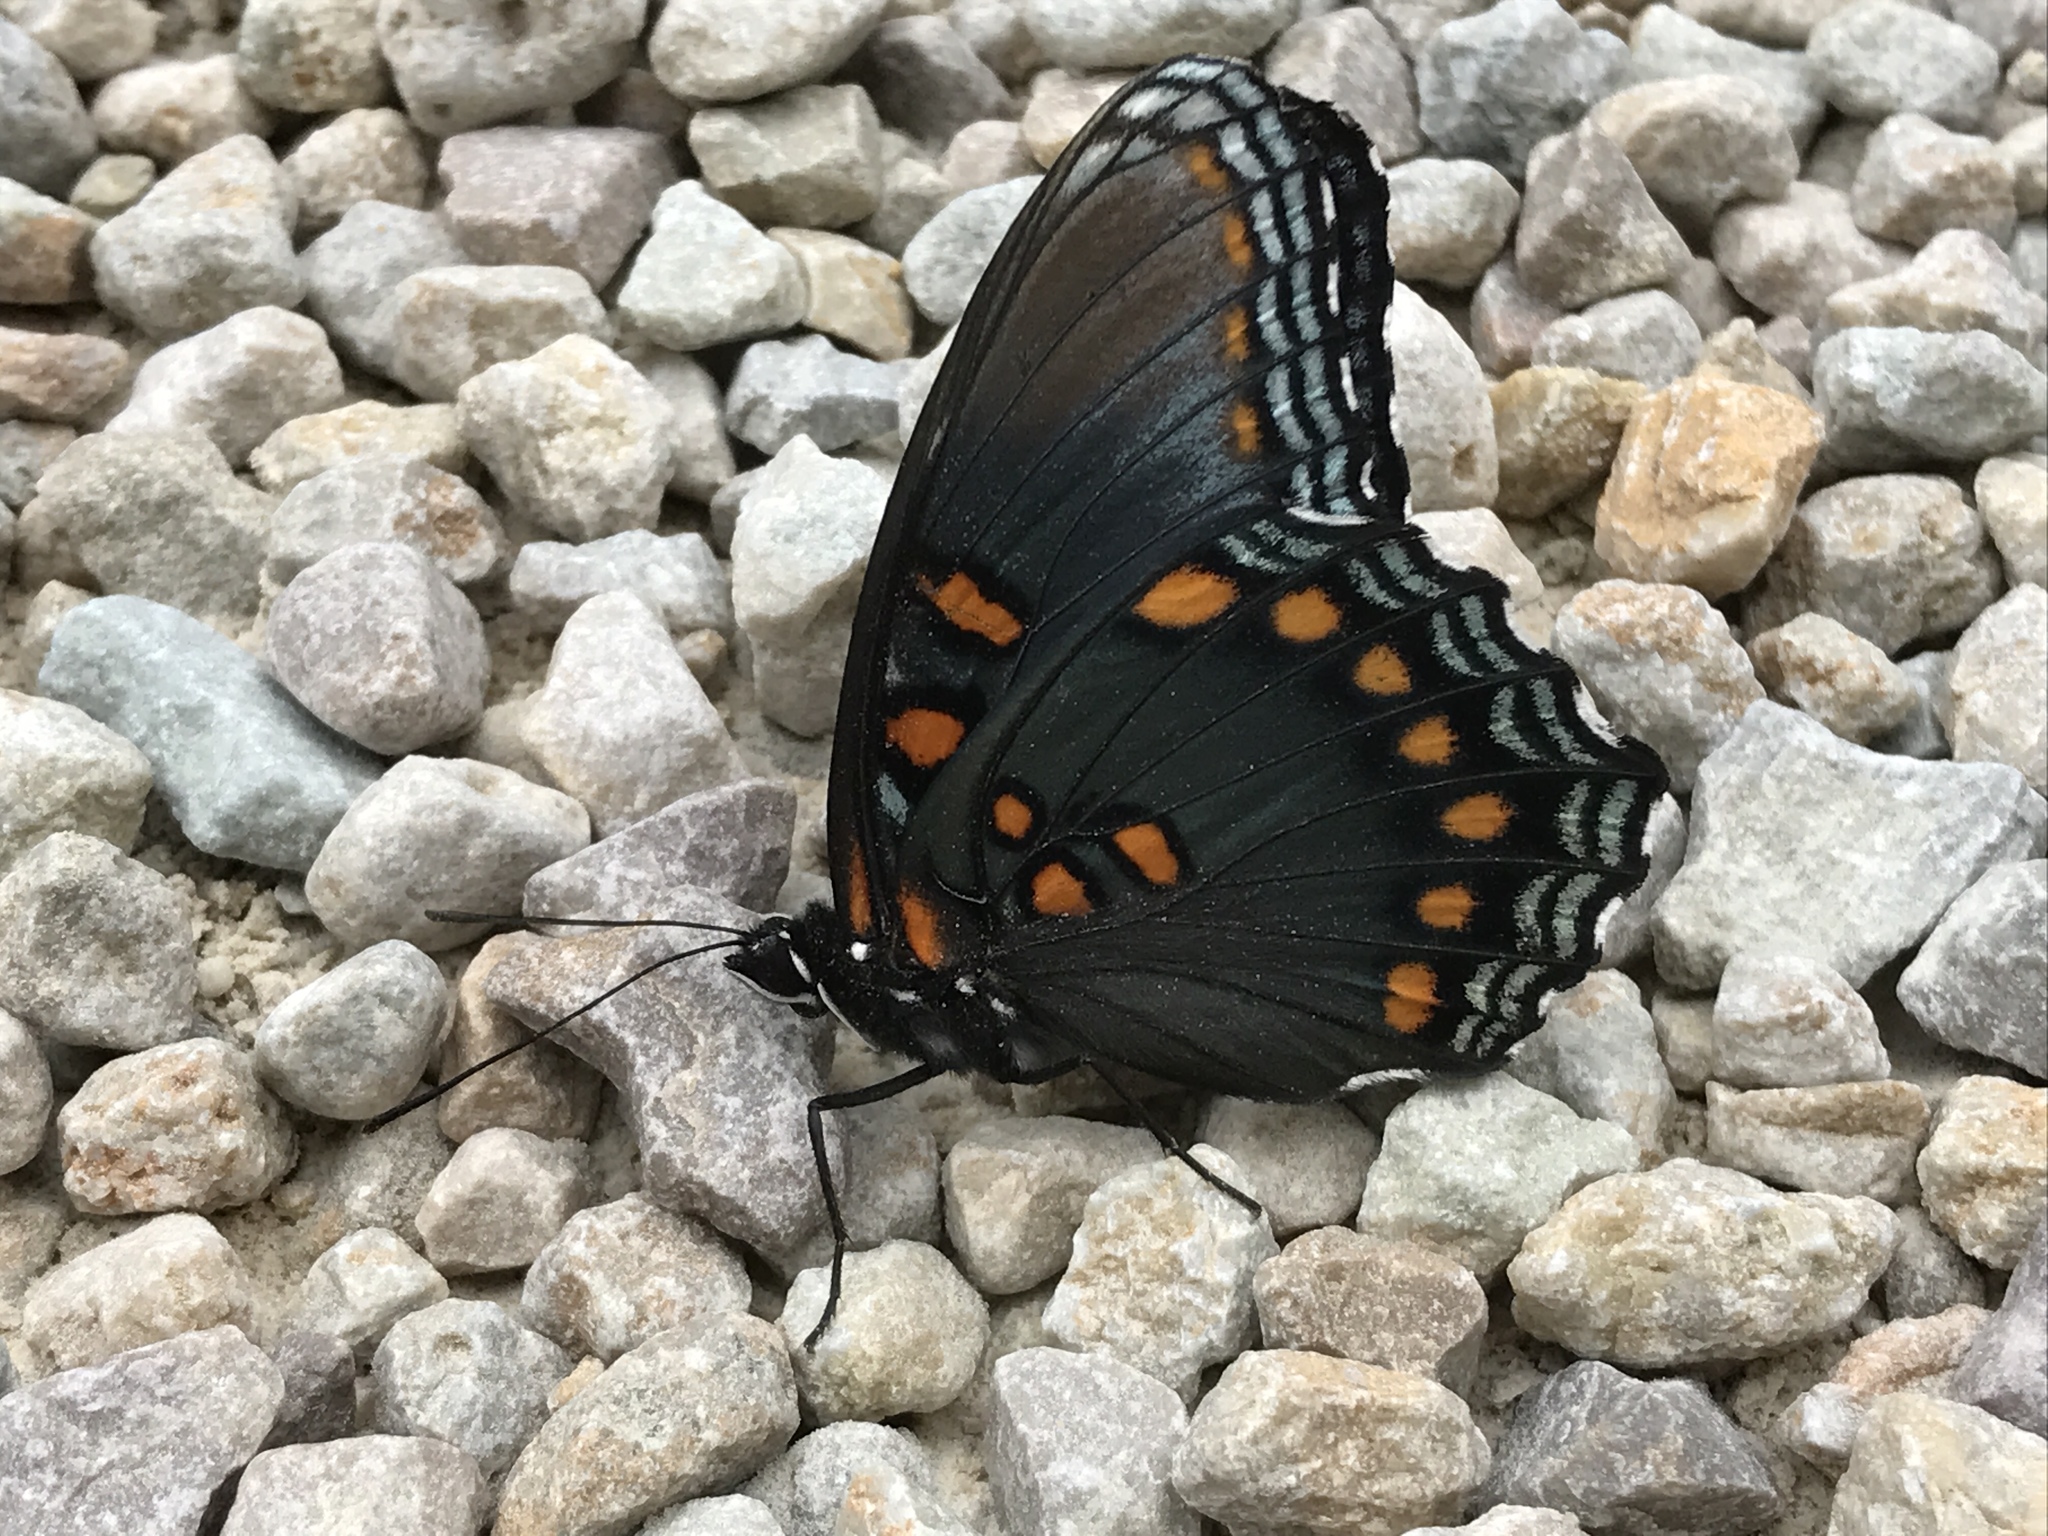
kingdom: Animalia
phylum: Arthropoda
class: Insecta
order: Lepidoptera
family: Nymphalidae
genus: Limenitis
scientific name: Limenitis astyanax
